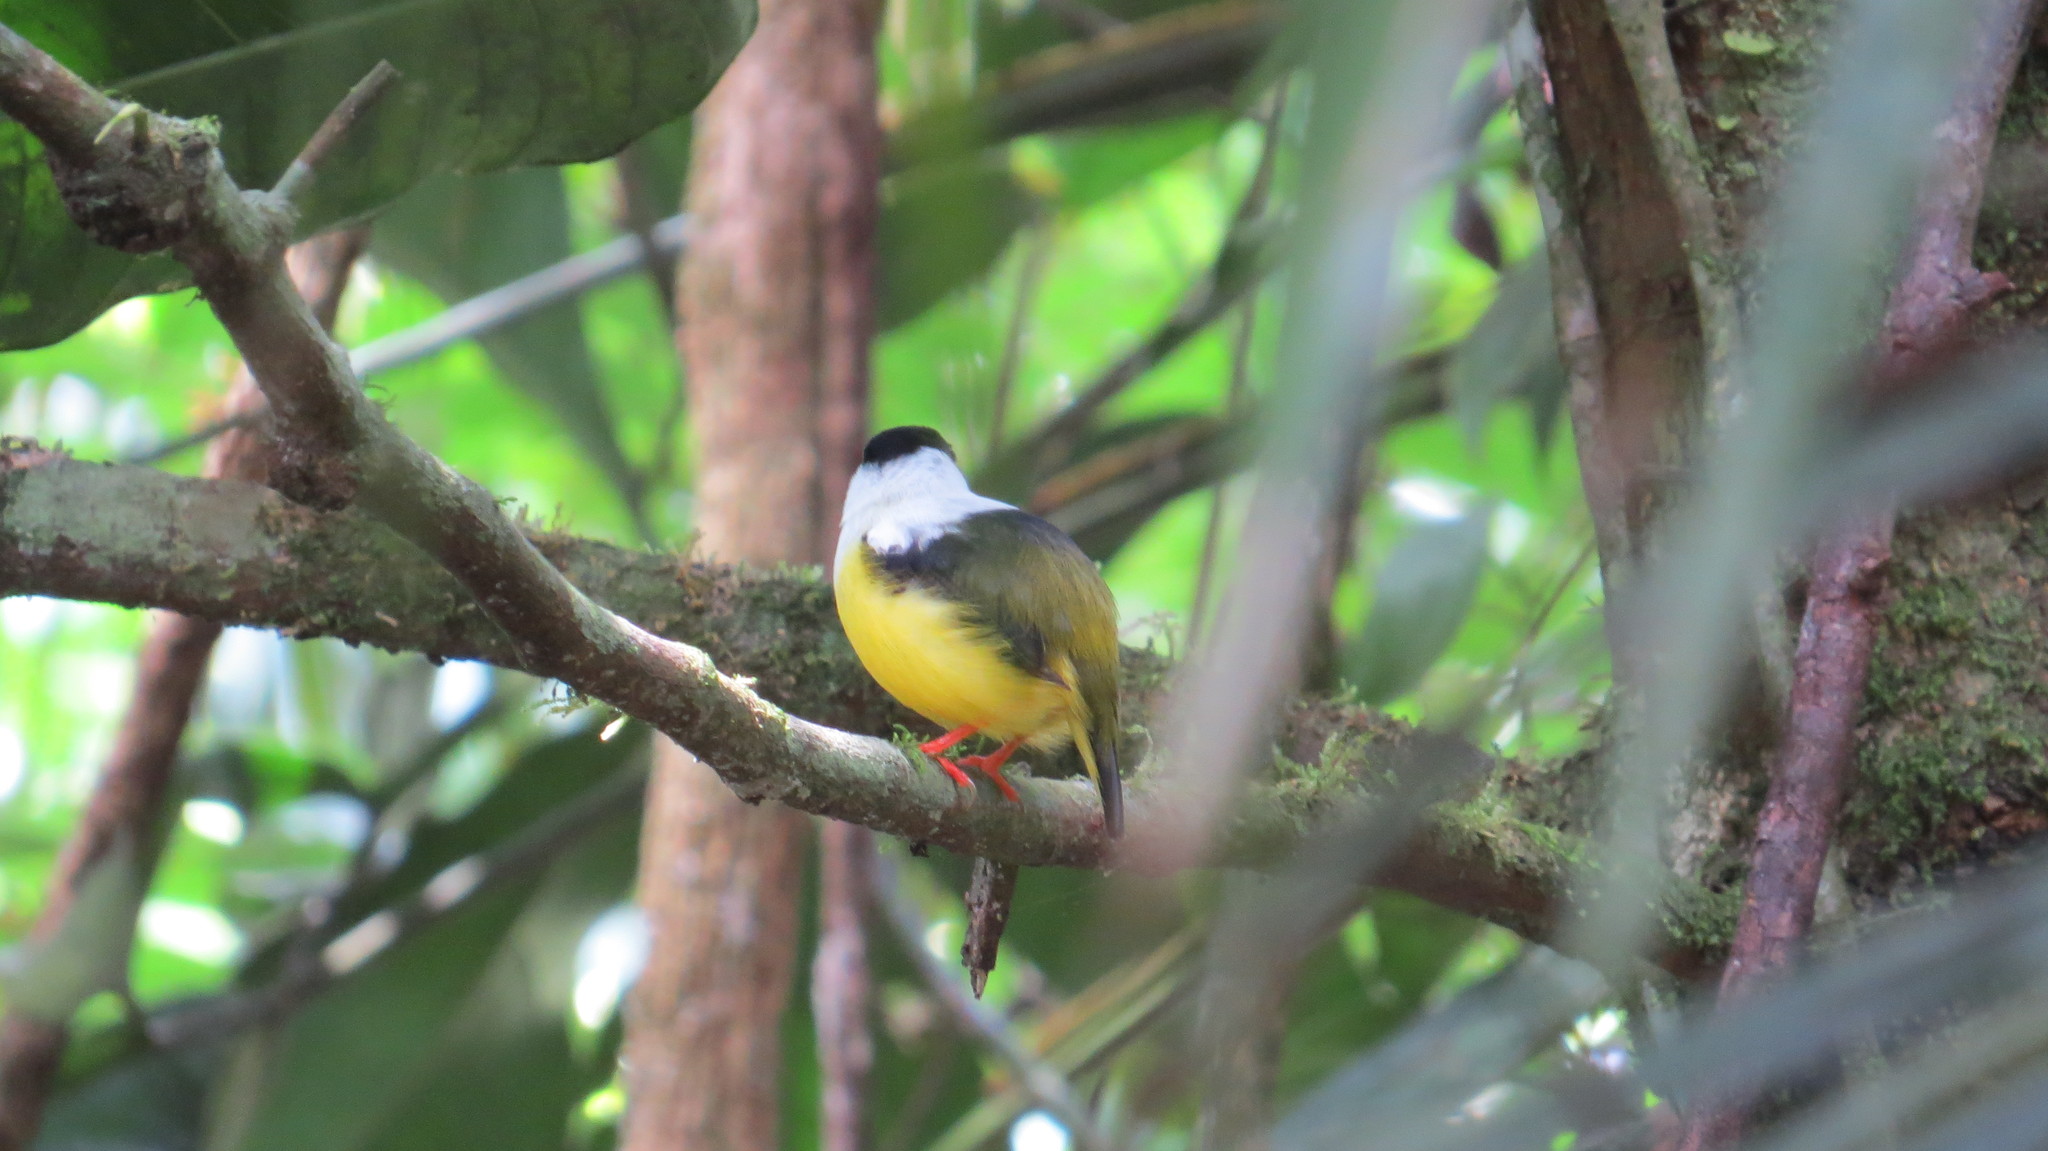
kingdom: Animalia
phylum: Chordata
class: Aves
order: Passeriformes
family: Pipridae
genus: Manacus
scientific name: Manacus candei
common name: White-collared manakin
